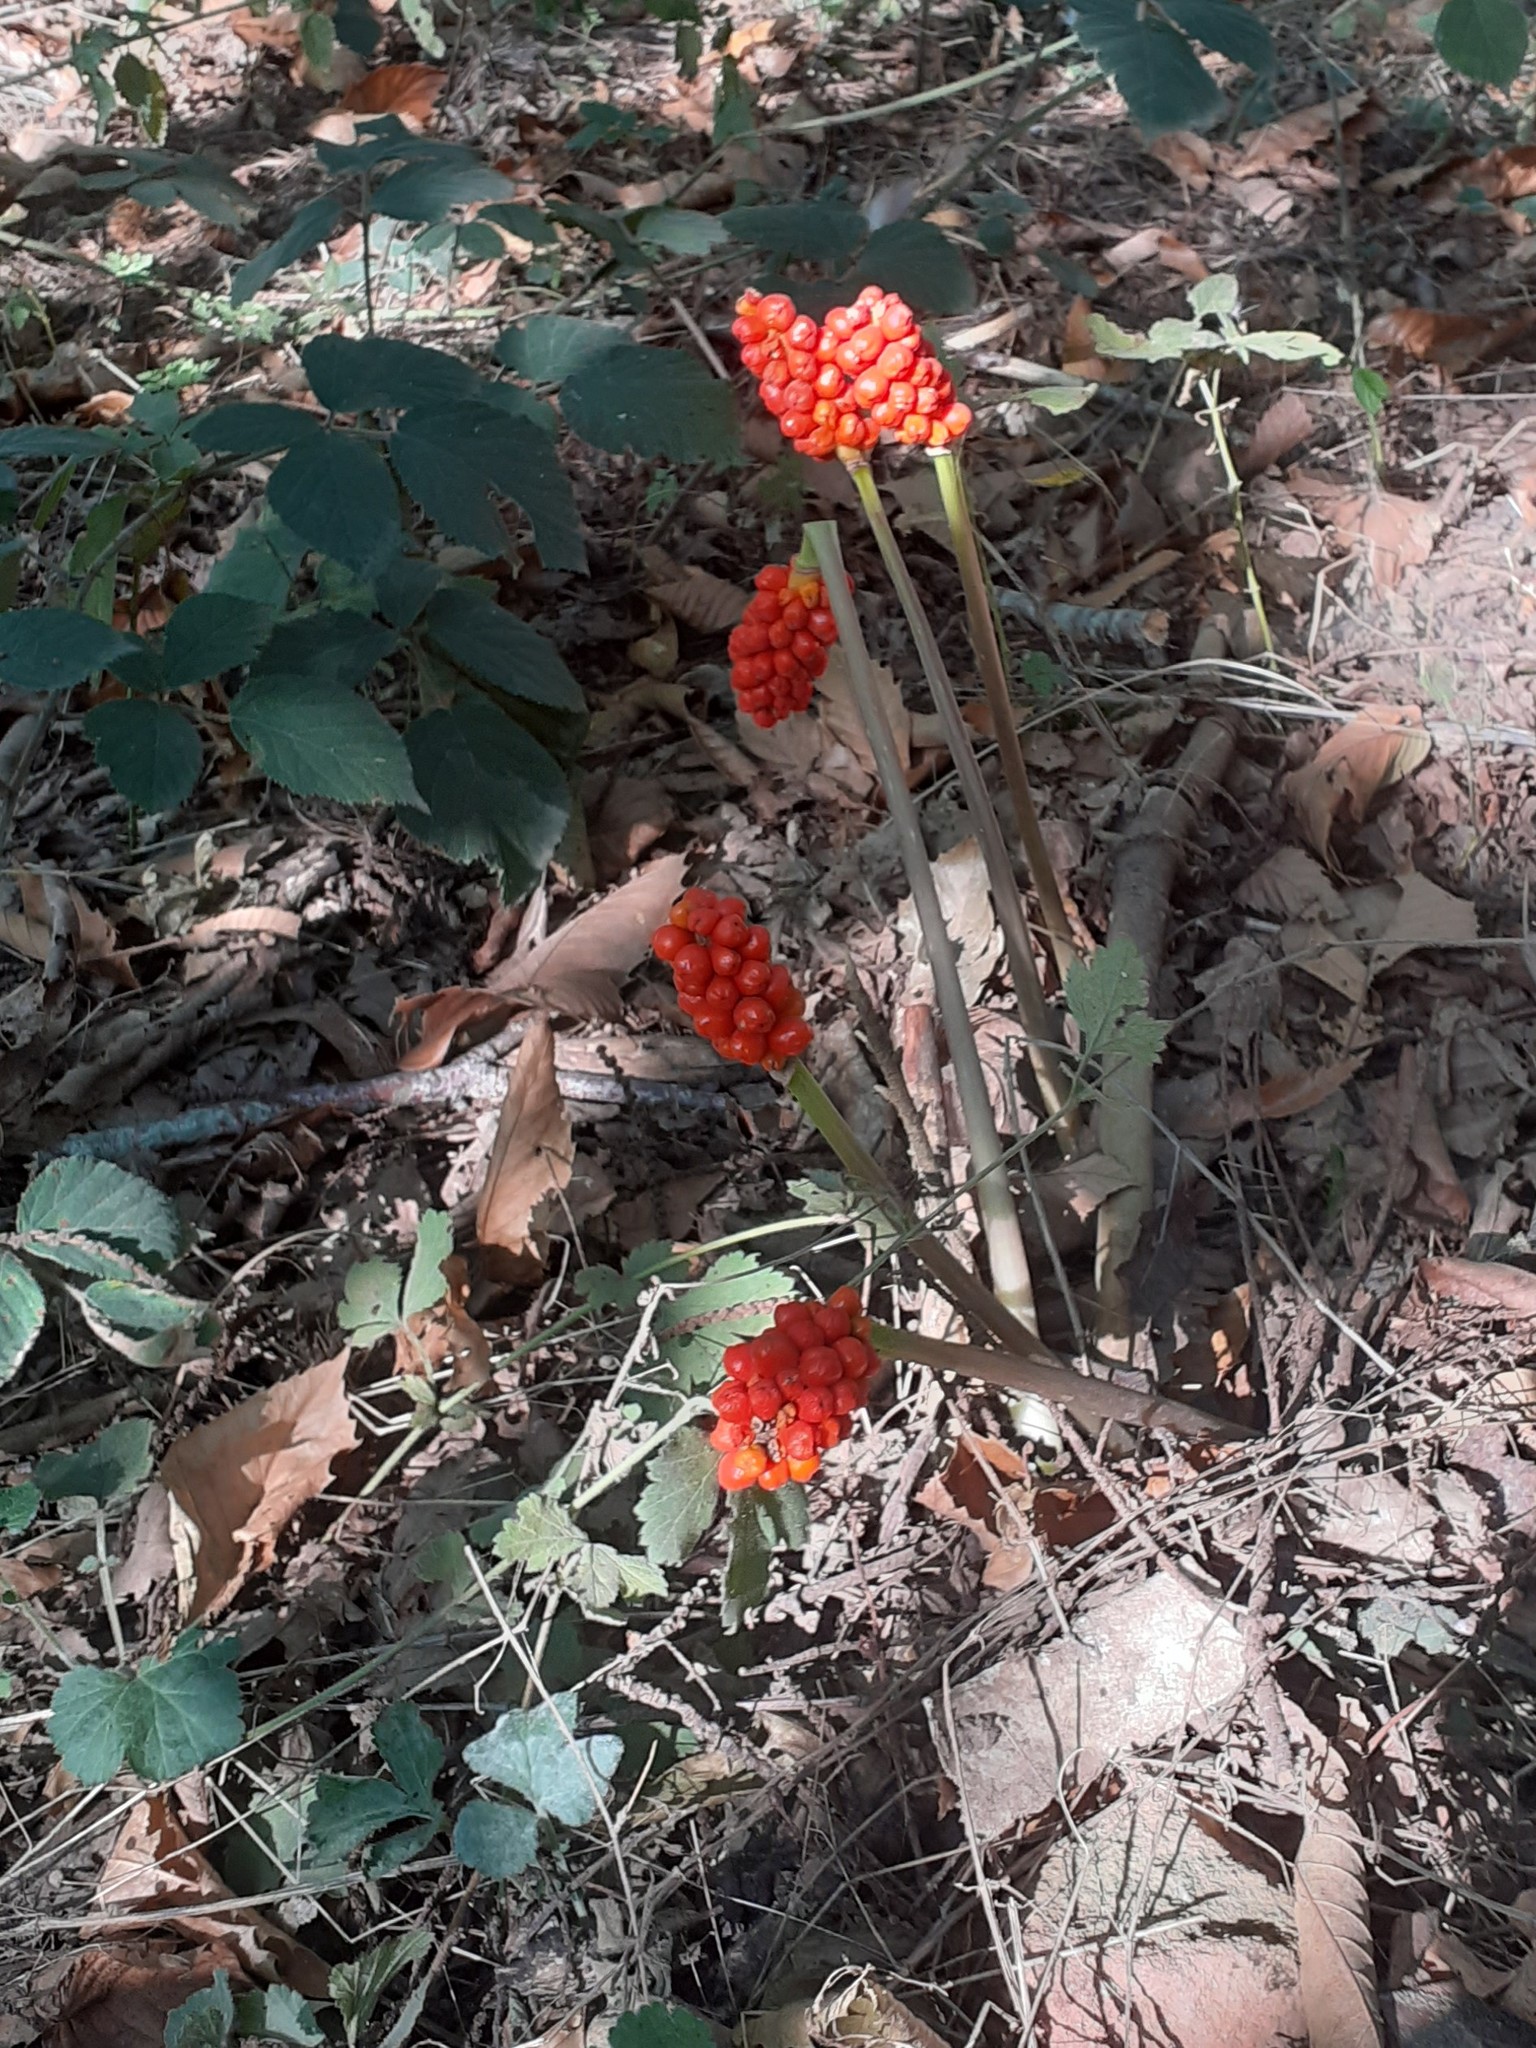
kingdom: Plantae
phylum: Tracheophyta
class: Liliopsida
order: Alismatales
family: Araceae
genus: Arum
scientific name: Arum maculatum
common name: Lords-and-ladies
